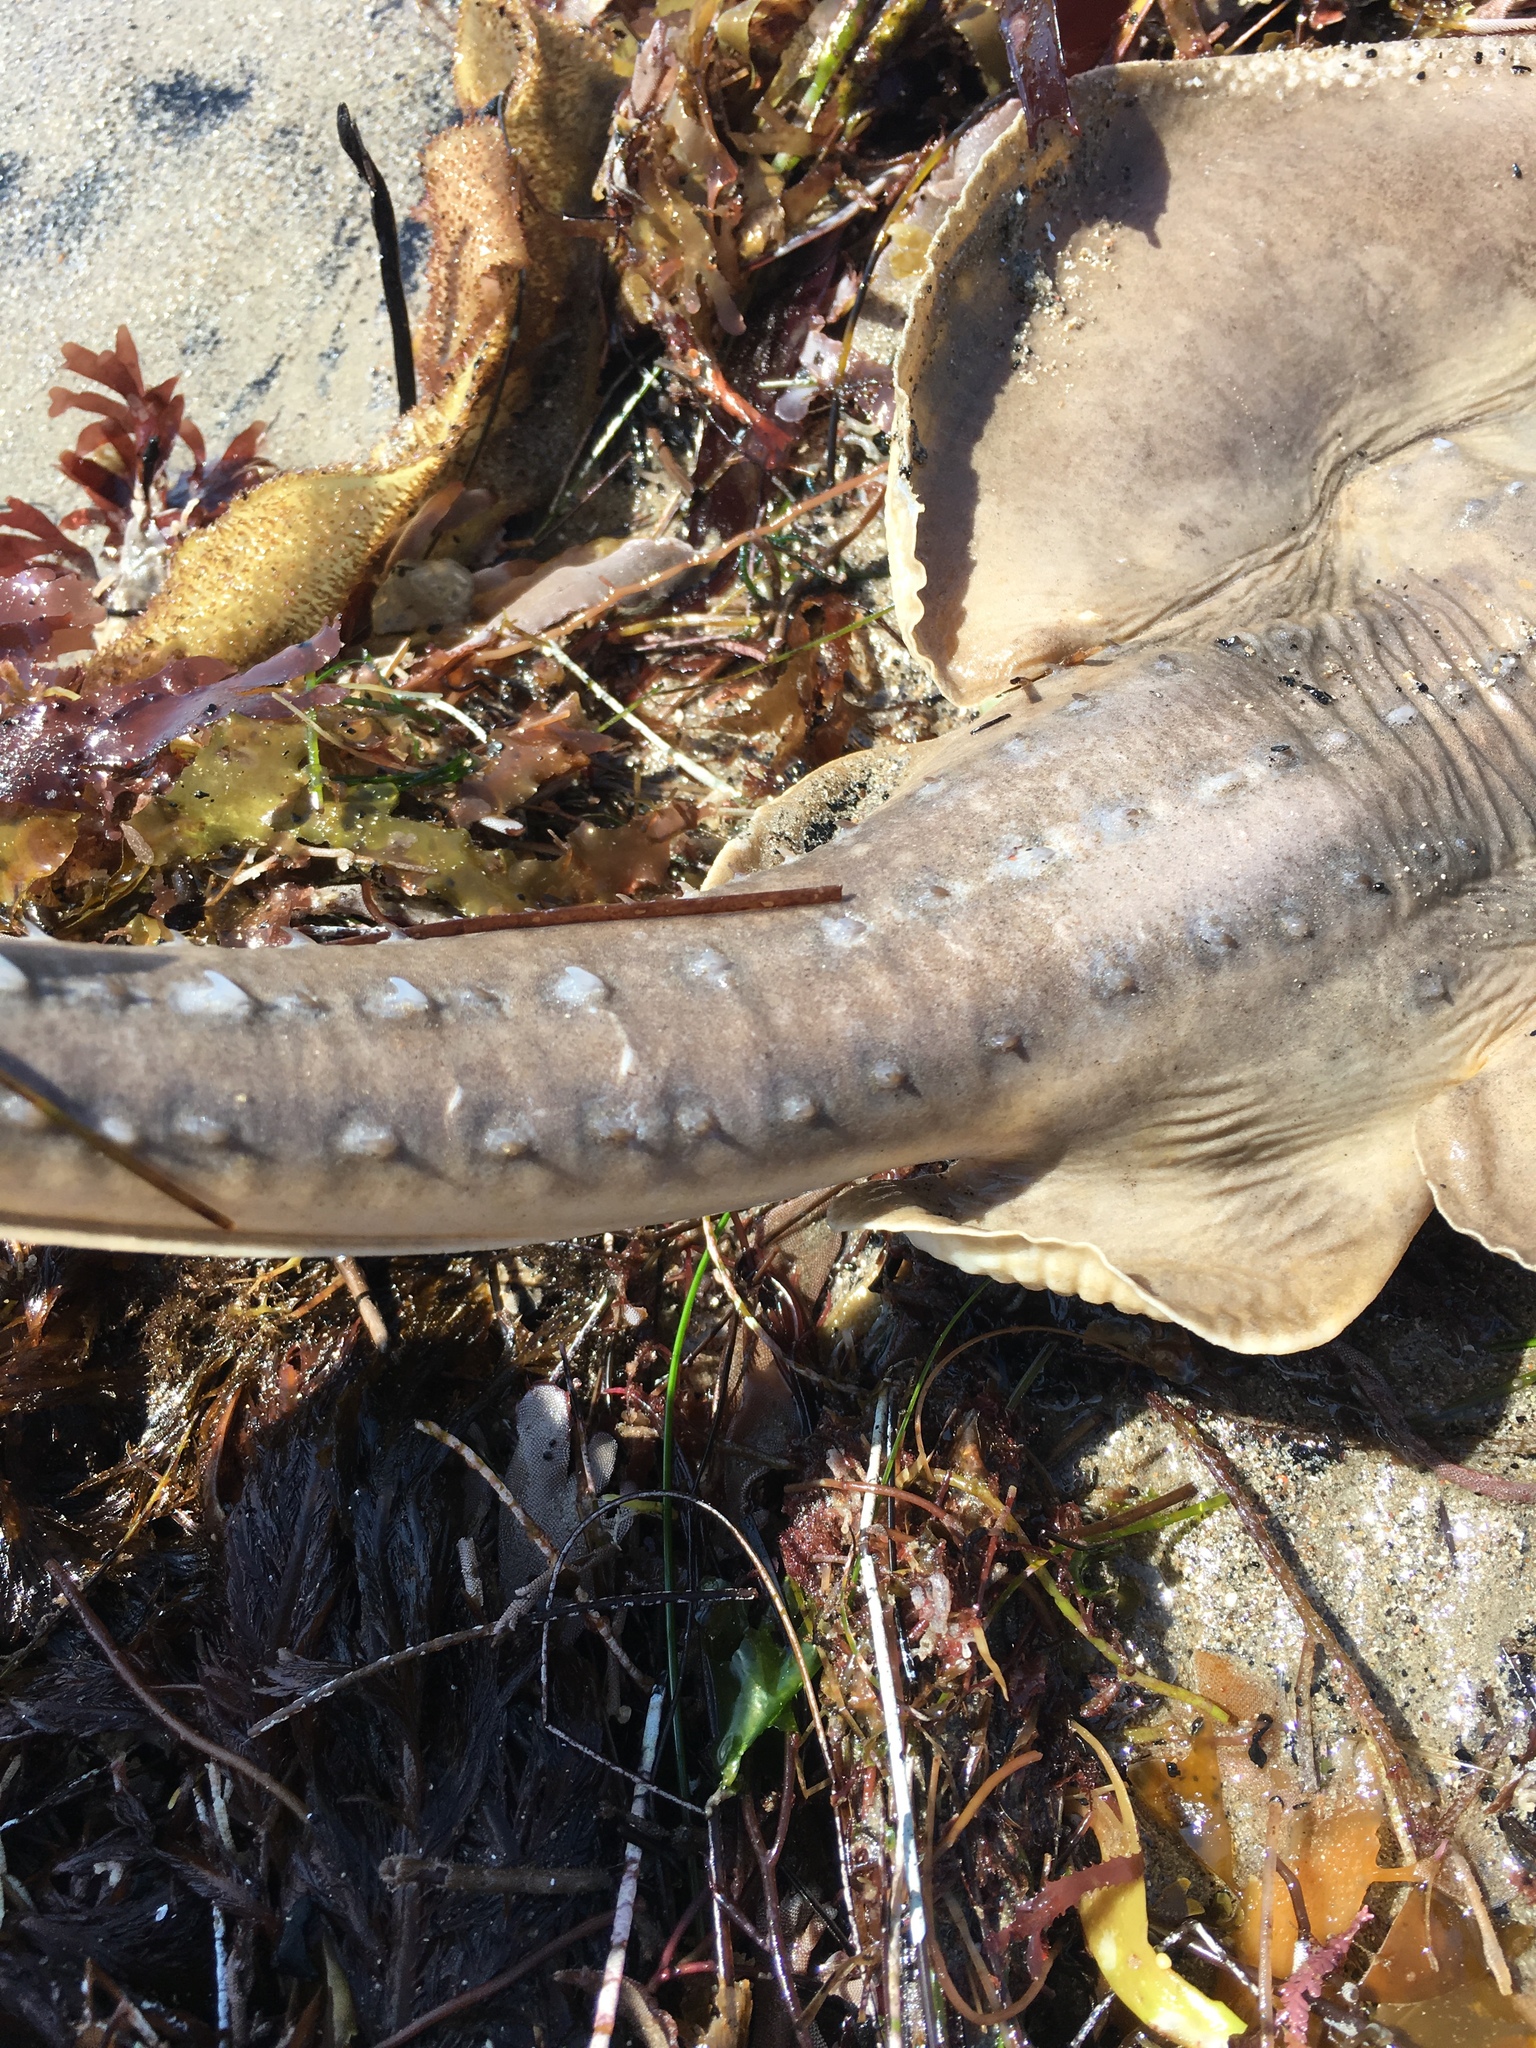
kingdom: Animalia
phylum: Chordata
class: Elasmobranchii
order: Rhinopristiformes
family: Rhinobatidae
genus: Platyrhinoidis
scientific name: Platyrhinoidis triseriata
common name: Thornback
